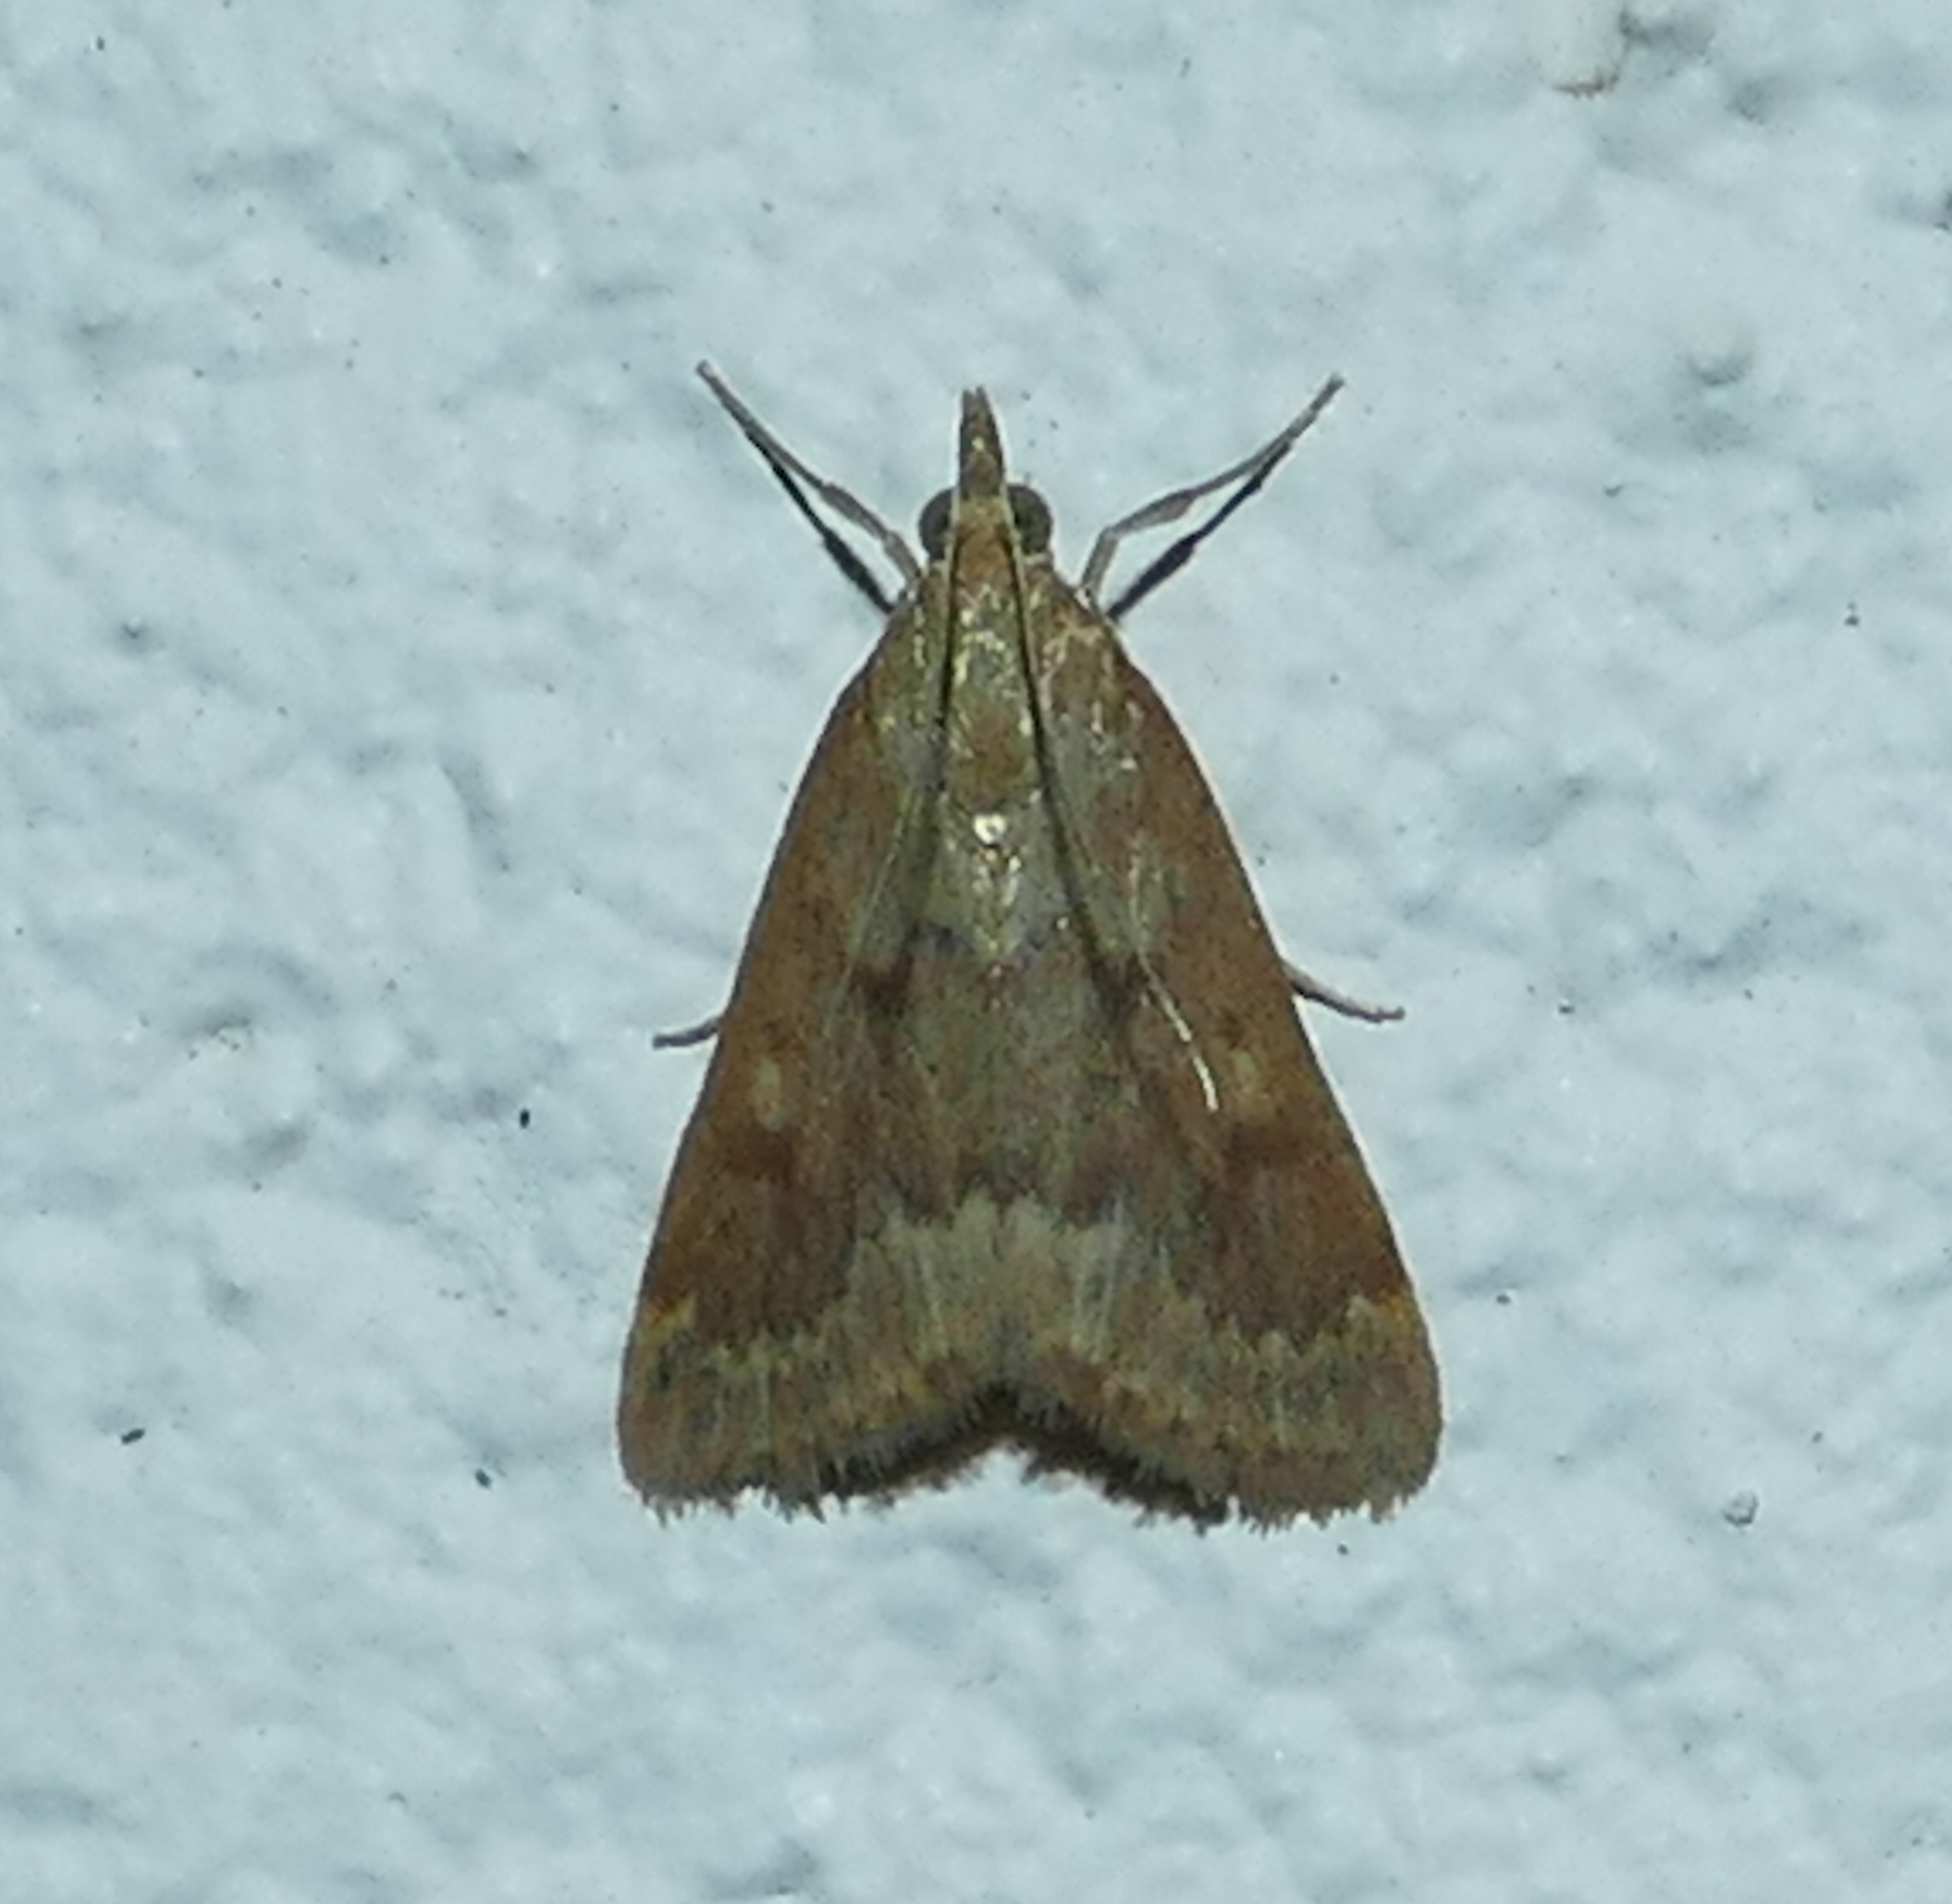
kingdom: Animalia
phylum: Arthropoda
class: Insecta
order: Lepidoptera
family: Crambidae
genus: Achyra
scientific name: Achyra rantalis
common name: Garden webworm
